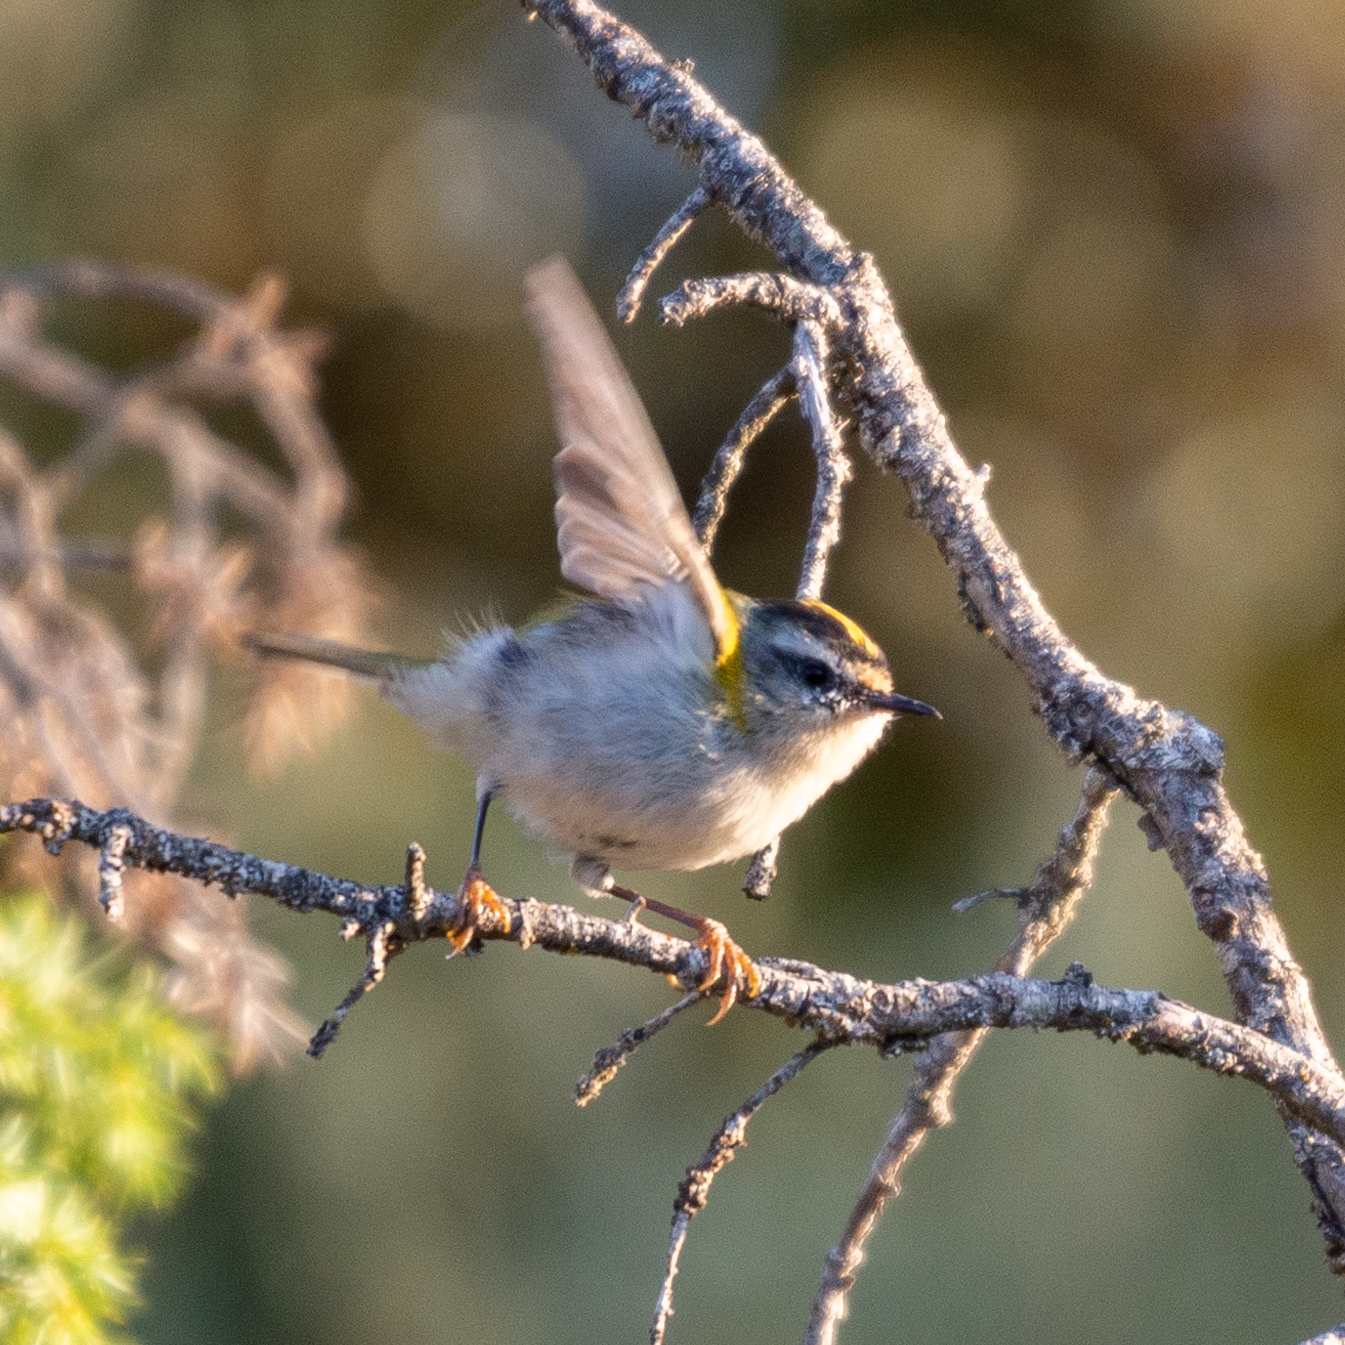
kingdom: Animalia
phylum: Chordata
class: Aves
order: Passeriformes
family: Regulidae
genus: Regulus
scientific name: Regulus ignicapilla
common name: Firecrest
